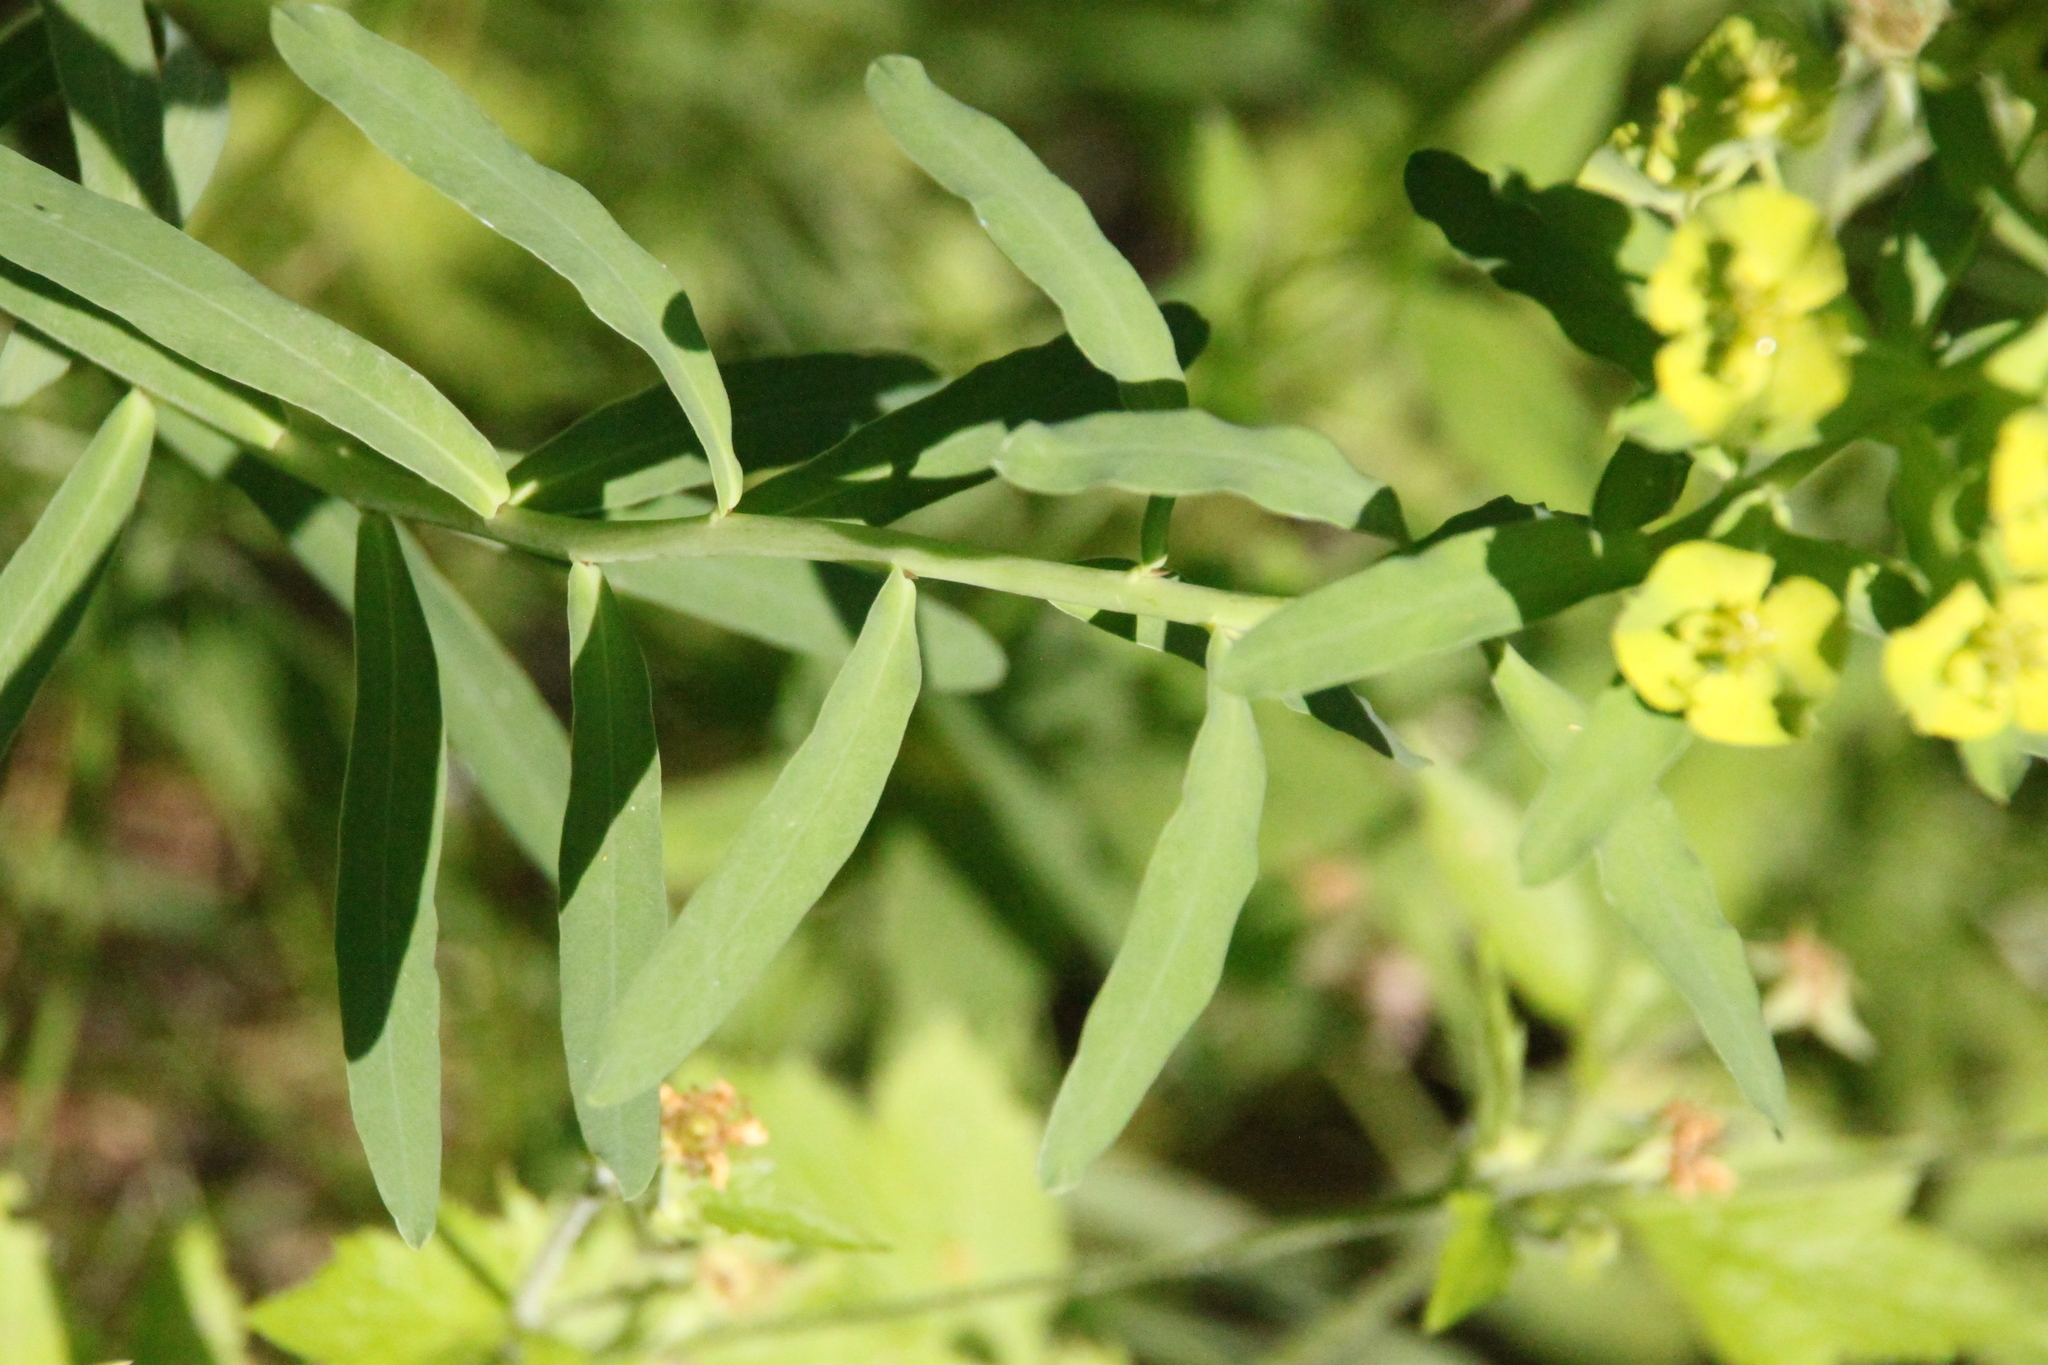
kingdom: Plantae
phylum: Tracheophyta
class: Magnoliopsida
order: Malpighiales
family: Euphorbiaceae
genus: Euphorbia
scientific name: Euphorbia virgata
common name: Leafy spurge
